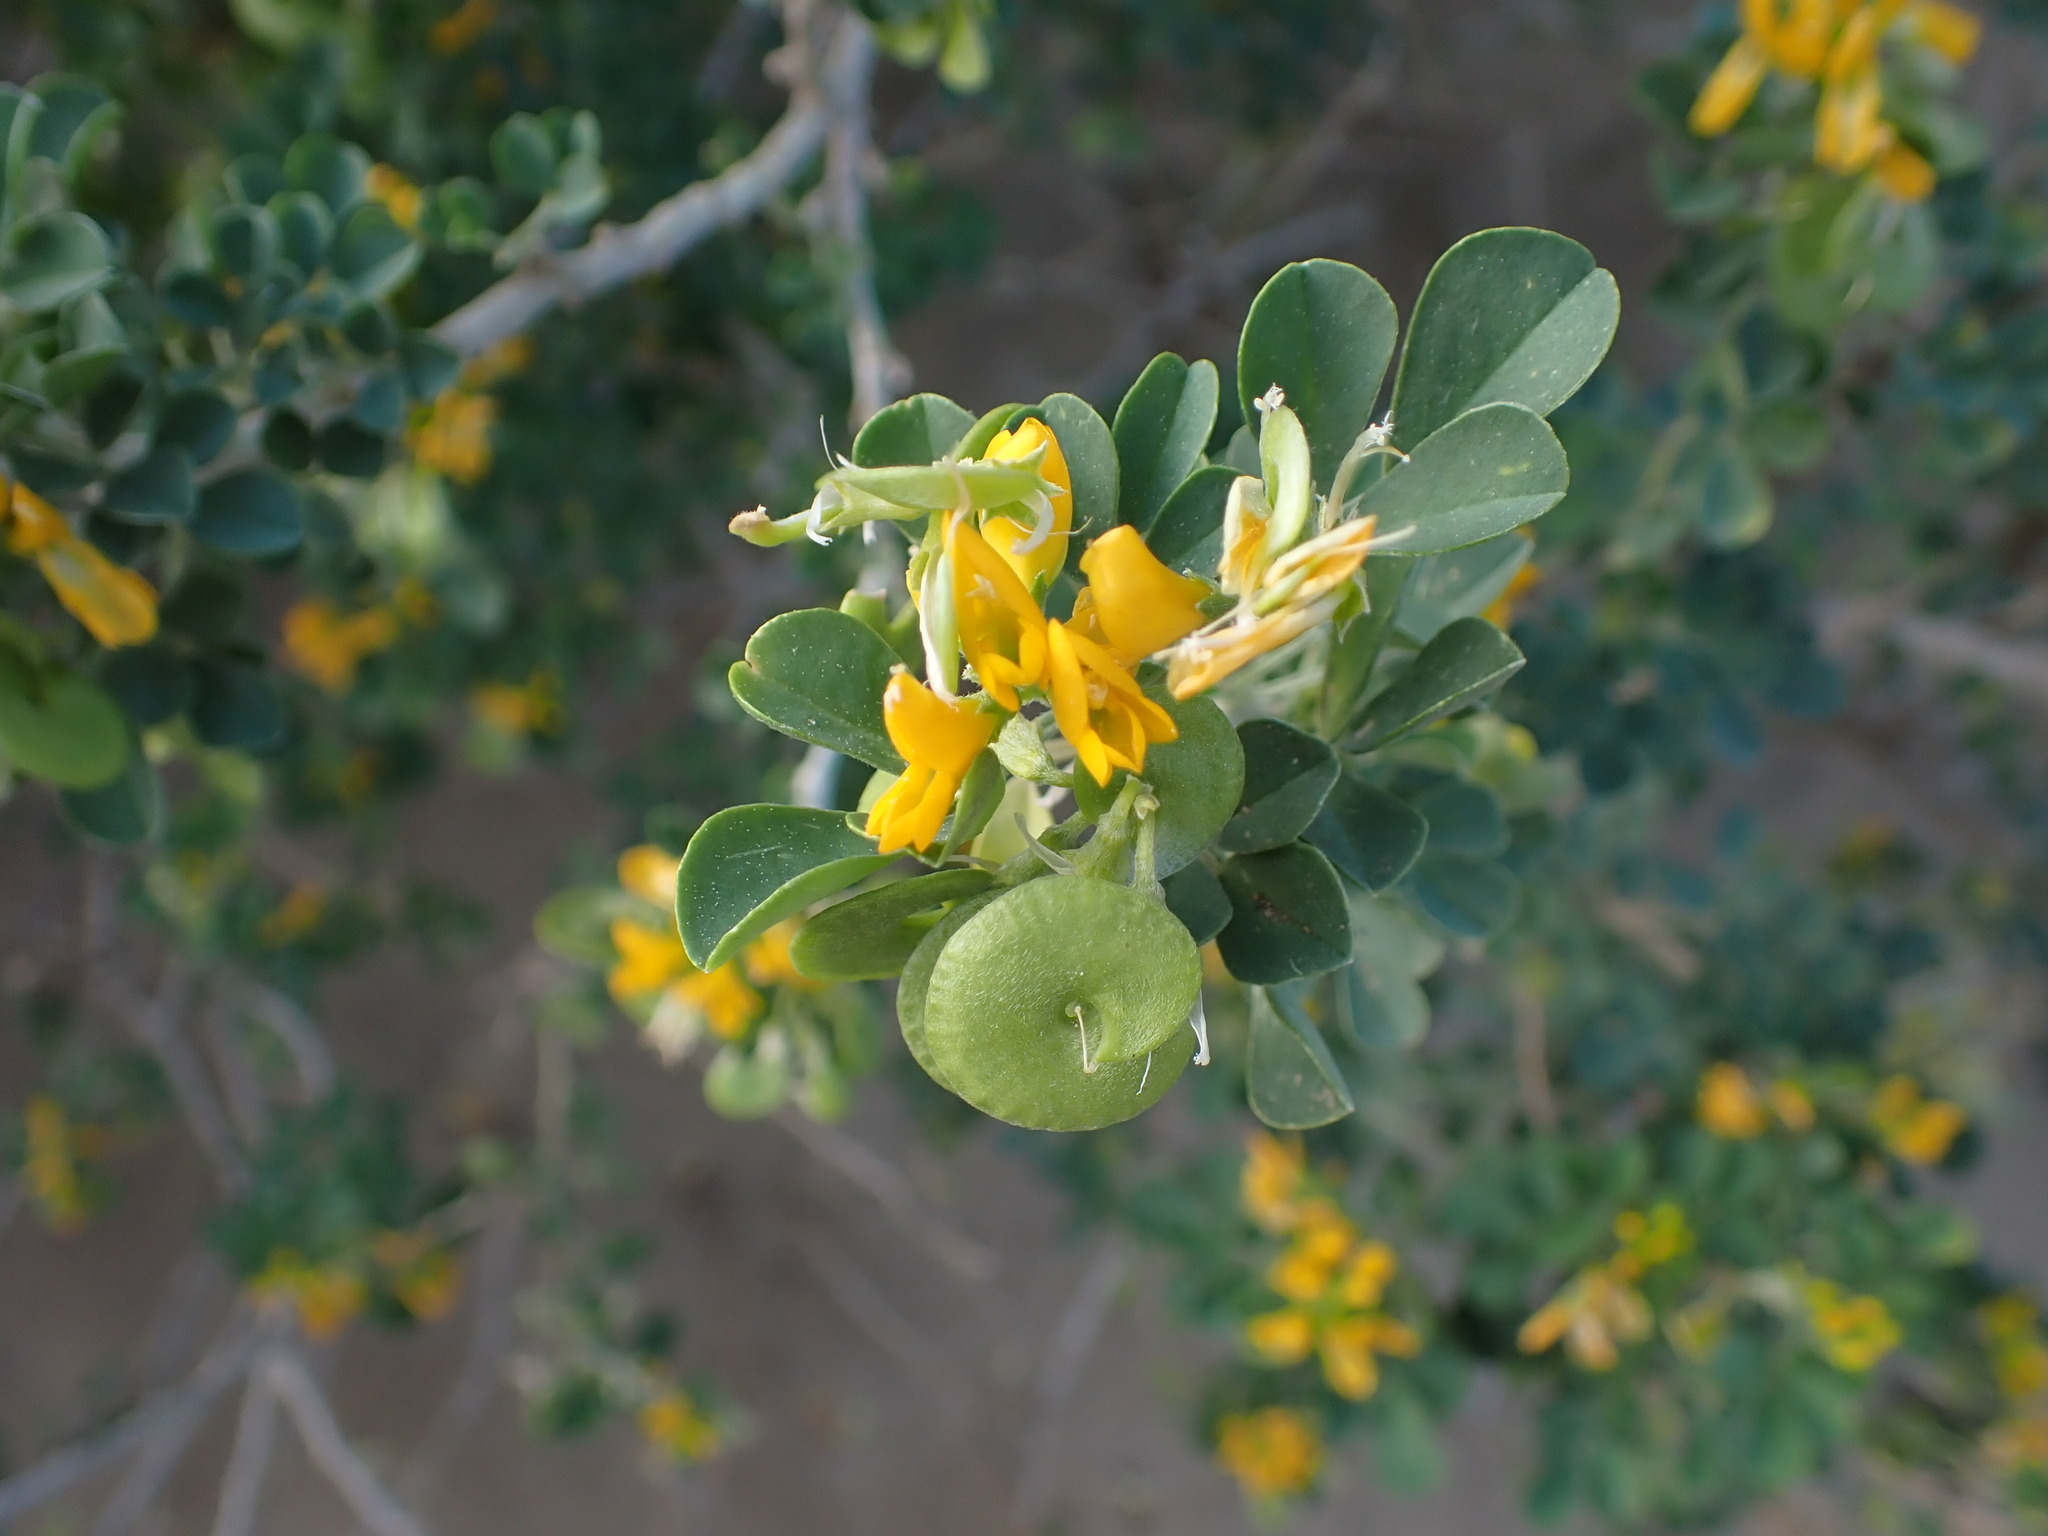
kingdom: Plantae
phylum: Tracheophyta
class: Magnoliopsida
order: Fabales
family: Fabaceae
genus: Medicago
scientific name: Medicago arborea
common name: Moon trefoil
